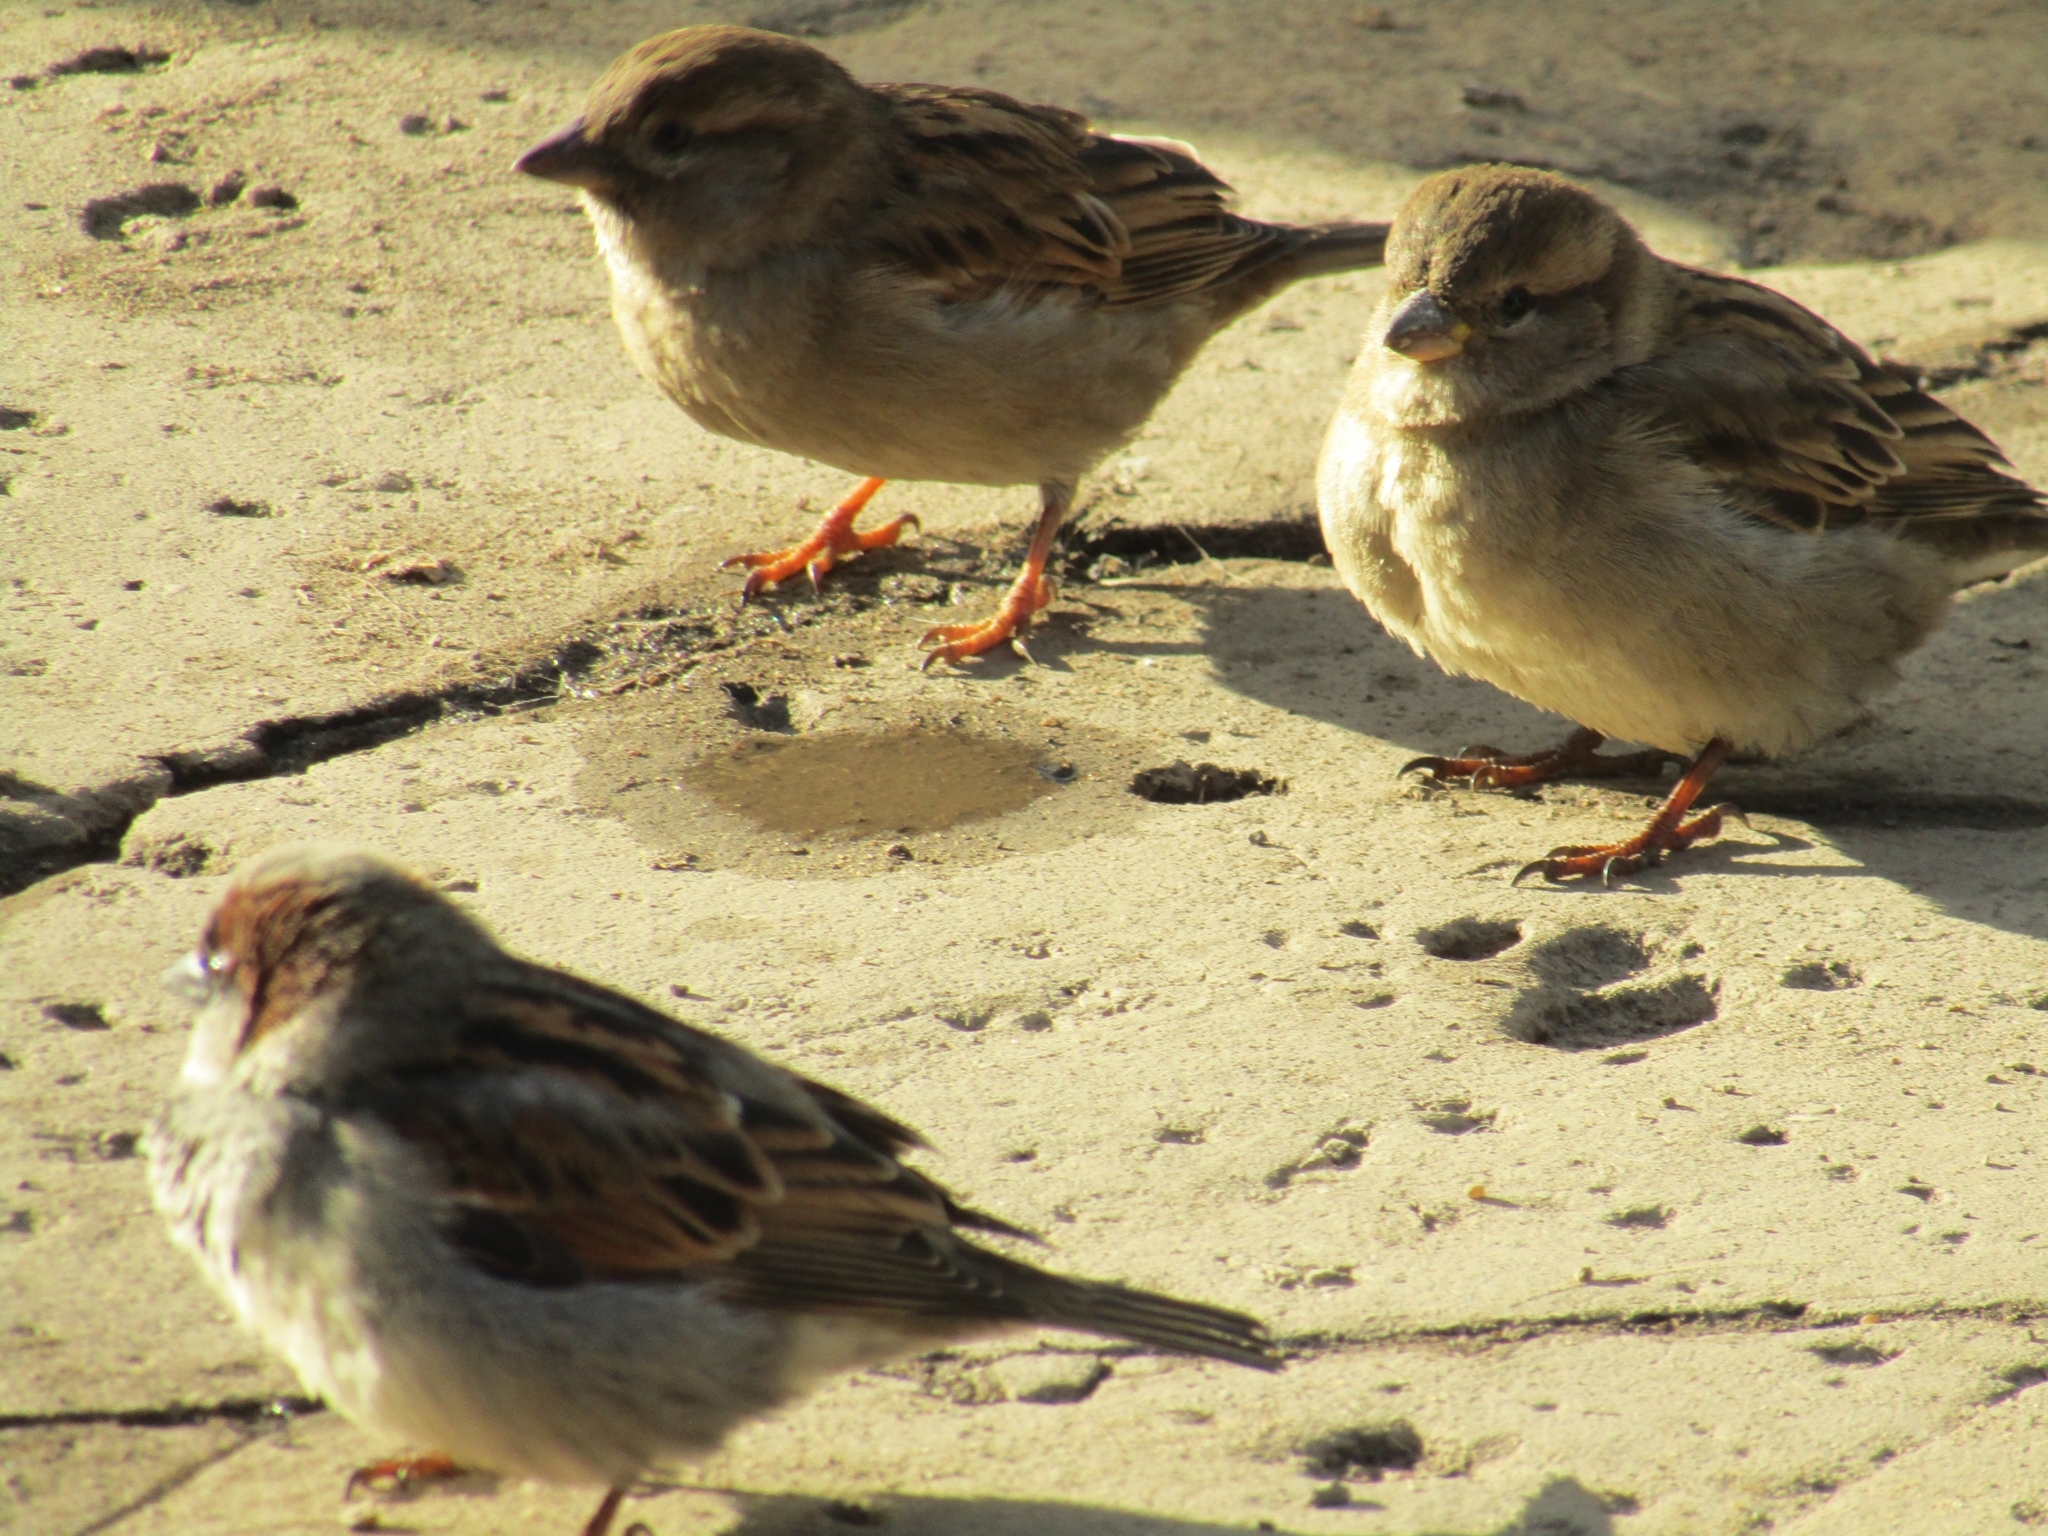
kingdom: Animalia
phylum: Chordata
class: Aves
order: Passeriformes
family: Passeridae
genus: Passer
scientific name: Passer domesticus
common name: House sparrow
